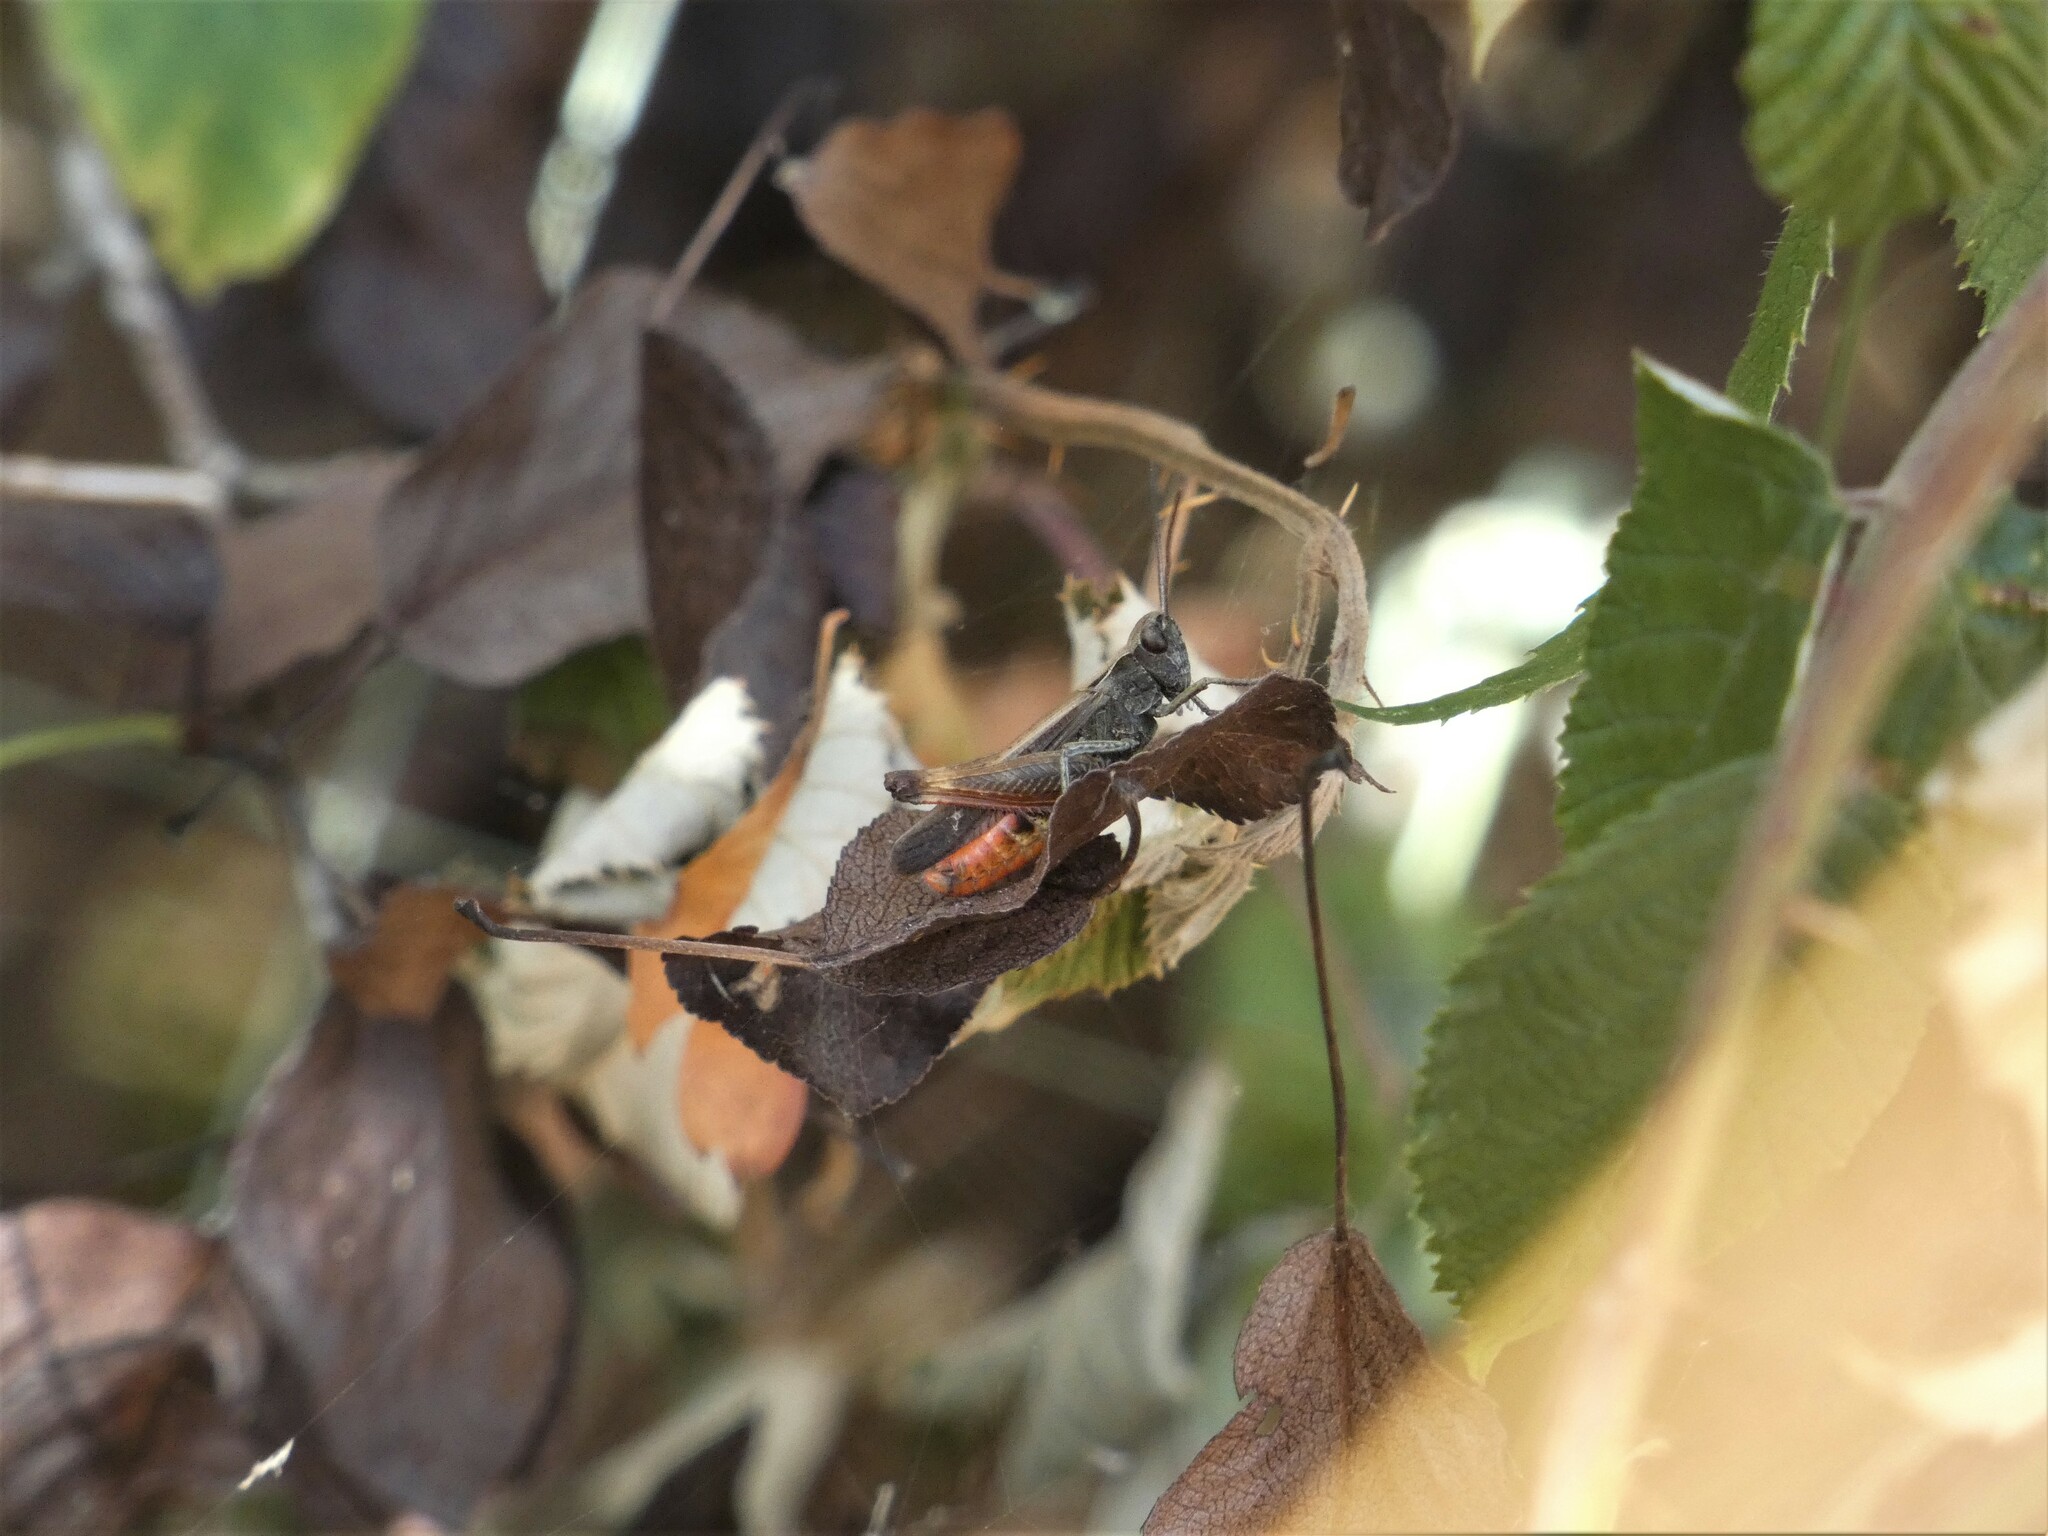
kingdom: Animalia
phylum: Arthropoda
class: Insecta
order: Orthoptera
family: Acrididae
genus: Omocestus
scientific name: Omocestus rufipes
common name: Woodland grasshopper
